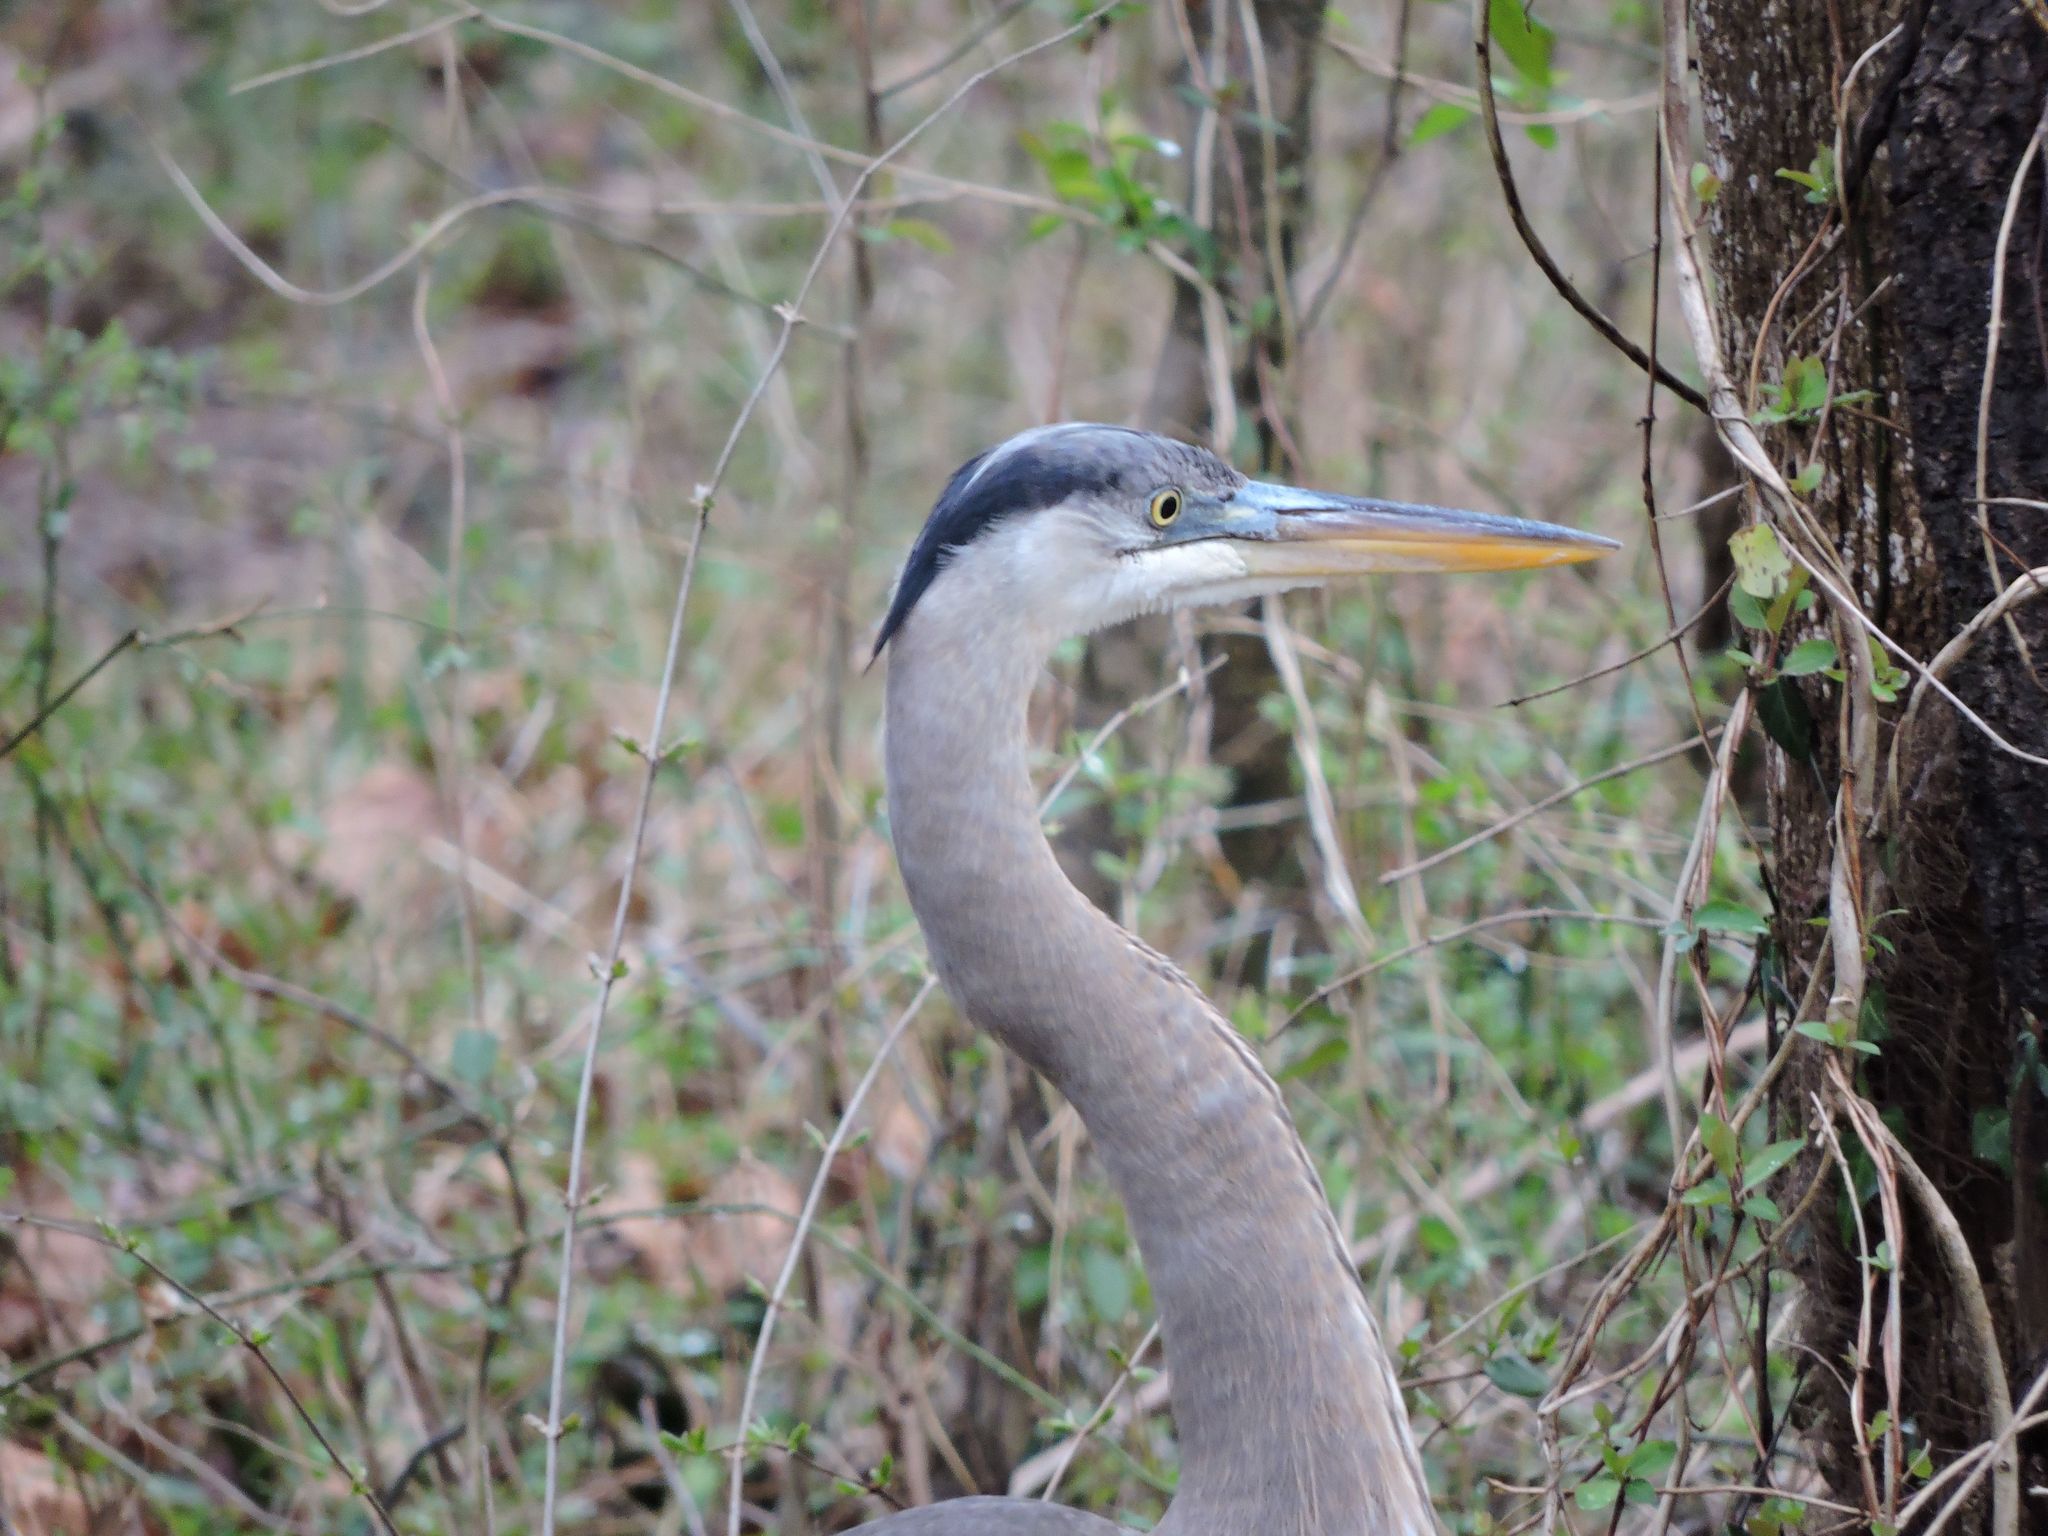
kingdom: Animalia
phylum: Chordata
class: Aves
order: Pelecaniformes
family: Ardeidae
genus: Ardea
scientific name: Ardea herodias
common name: Great blue heron
